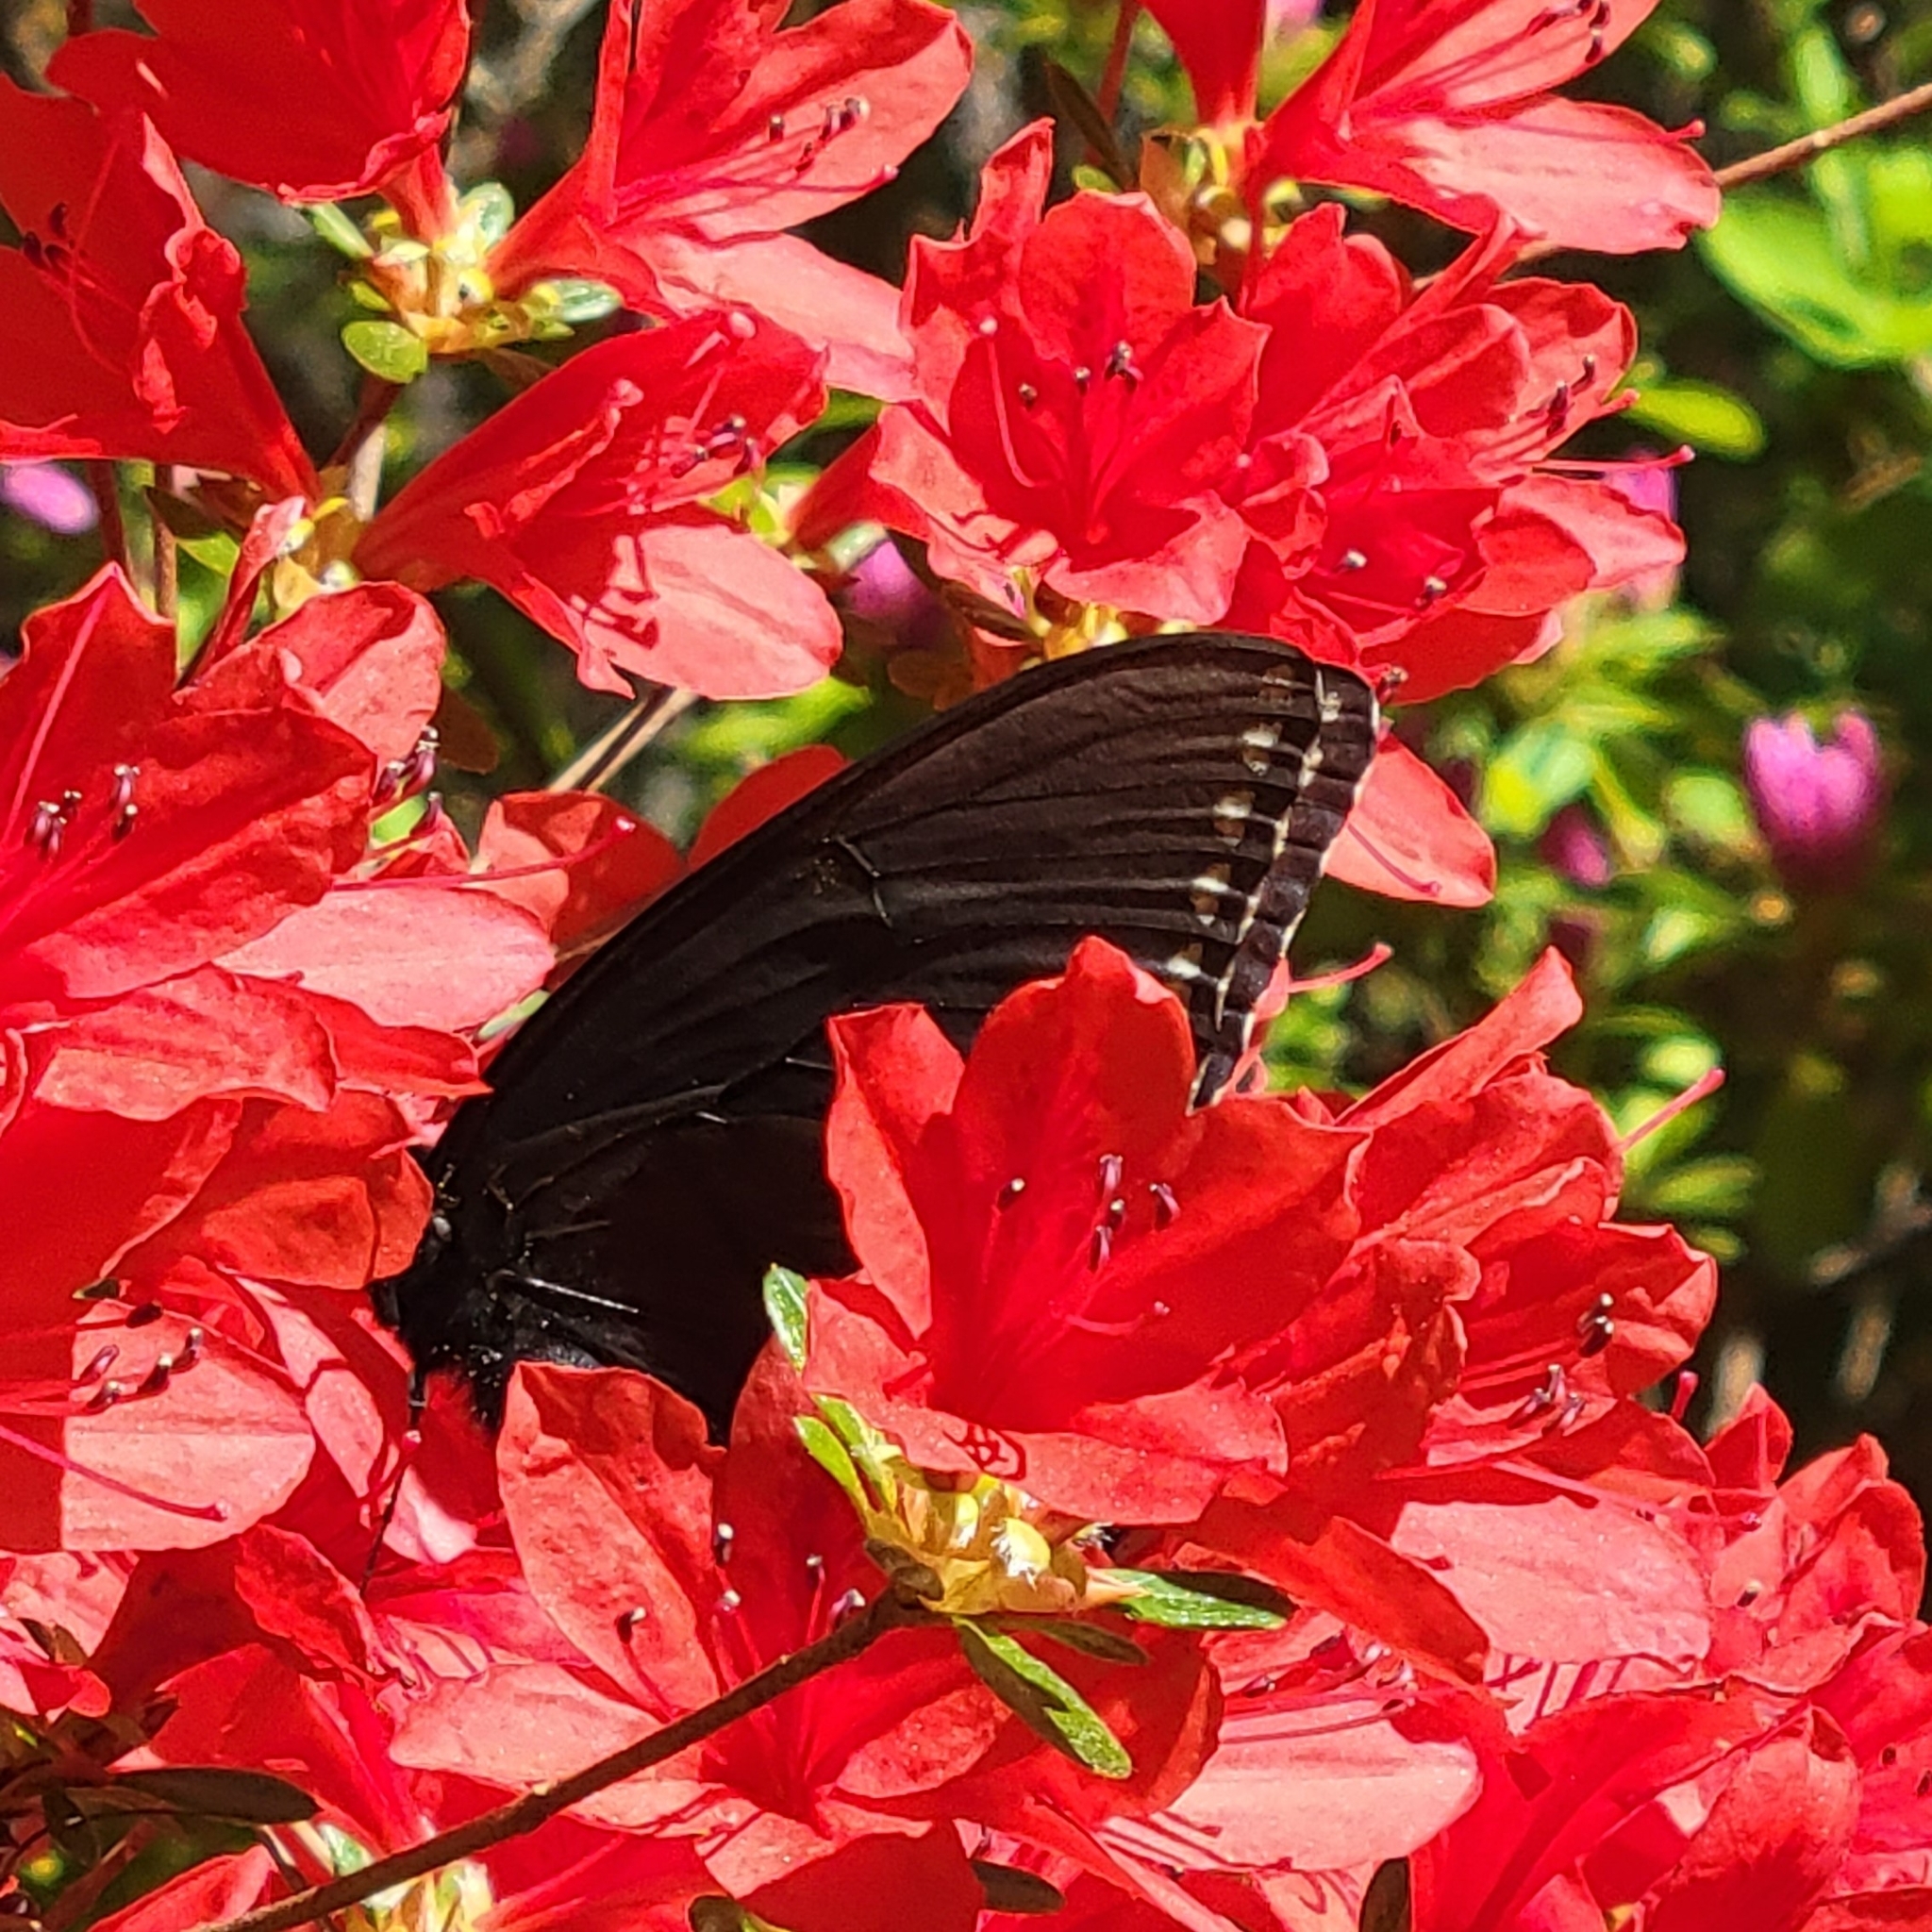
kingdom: Animalia
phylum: Arthropoda
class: Insecta
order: Lepidoptera
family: Papilionidae
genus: Papilio
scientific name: Papilio glaucus
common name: Tiger swallowtail
